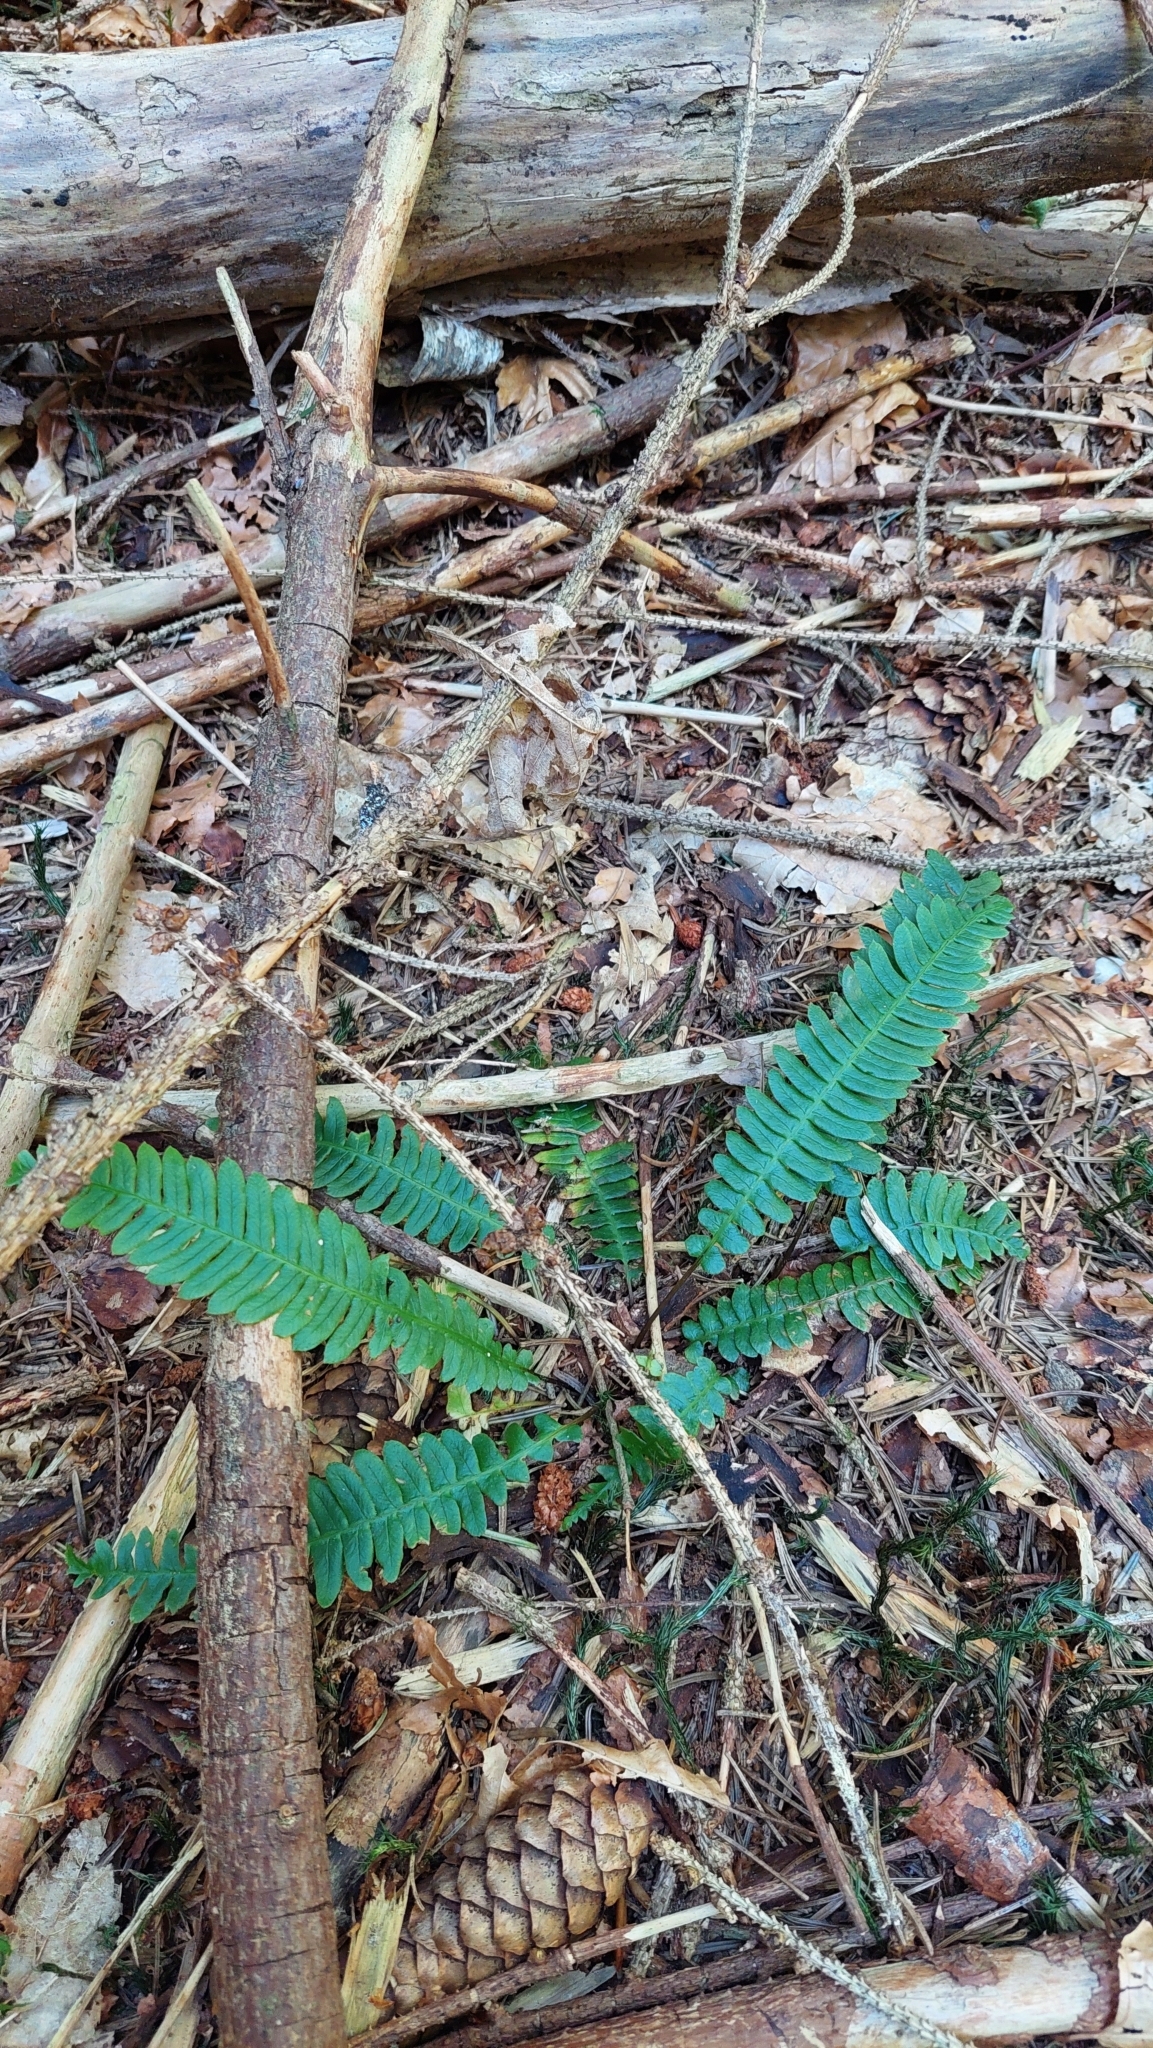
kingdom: Plantae
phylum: Tracheophyta
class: Polypodiopsida
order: Polypodiales
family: Blechnaceae
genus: Struthiopteris
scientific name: Struthiopteris spicant
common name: Deer fern
